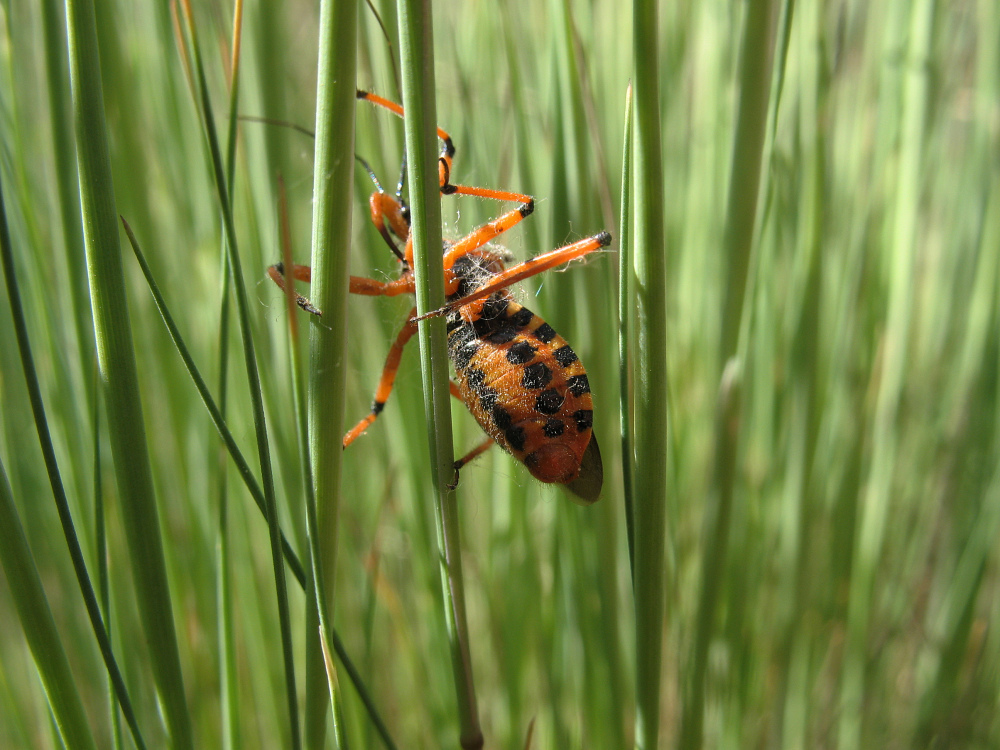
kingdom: Animalia
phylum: Arthropoda
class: Insecta
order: Hemiptera
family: Reduviidae
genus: Rhynocoris
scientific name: Rhynocoris iracundus
